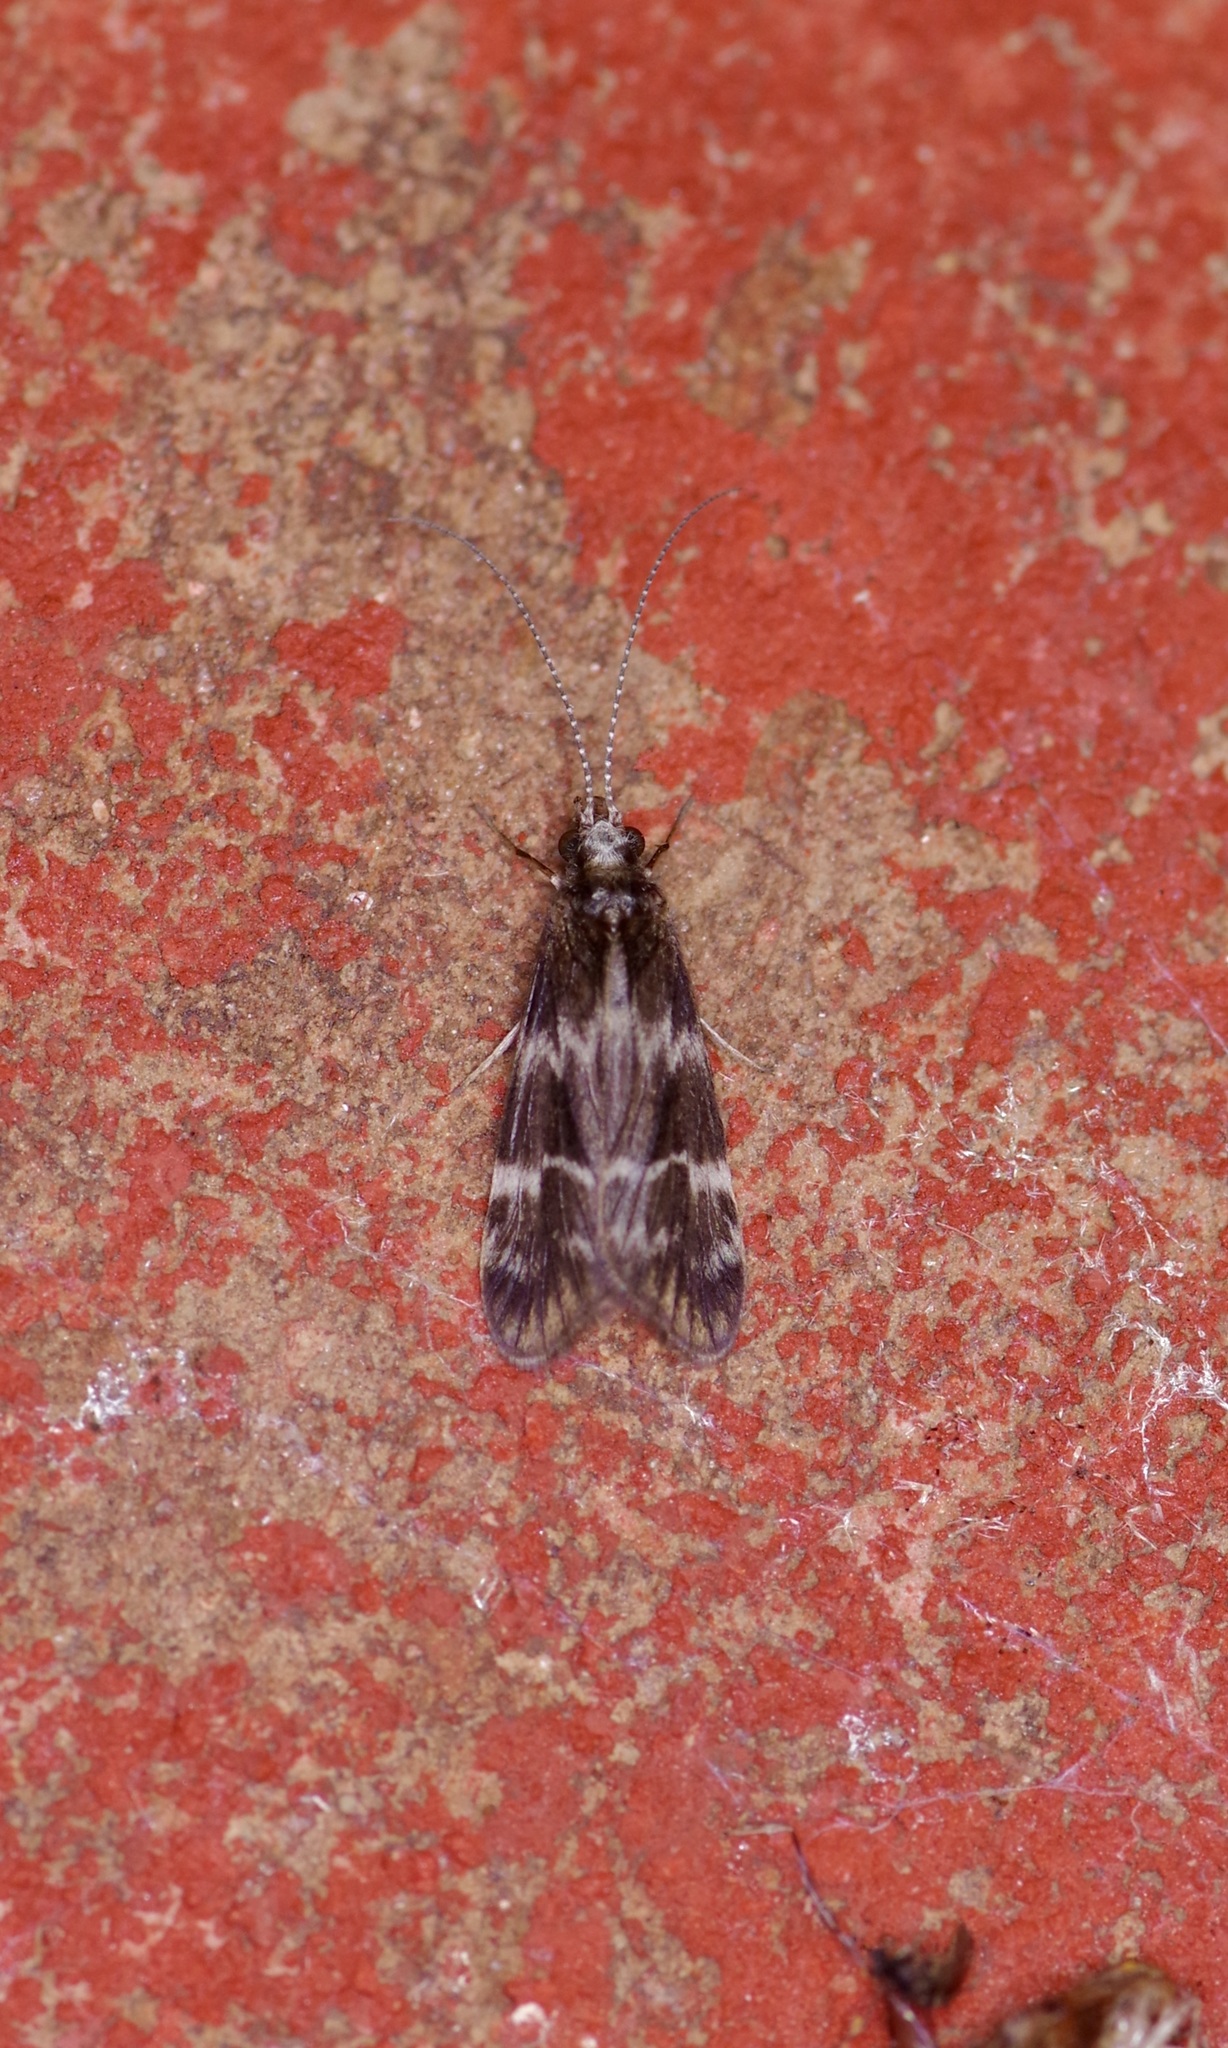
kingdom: Animalia
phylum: Arthropoda
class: Insecta
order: Trichoptera
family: Hydropsychidae
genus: Smicridea
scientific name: Smicridea fasciatella
